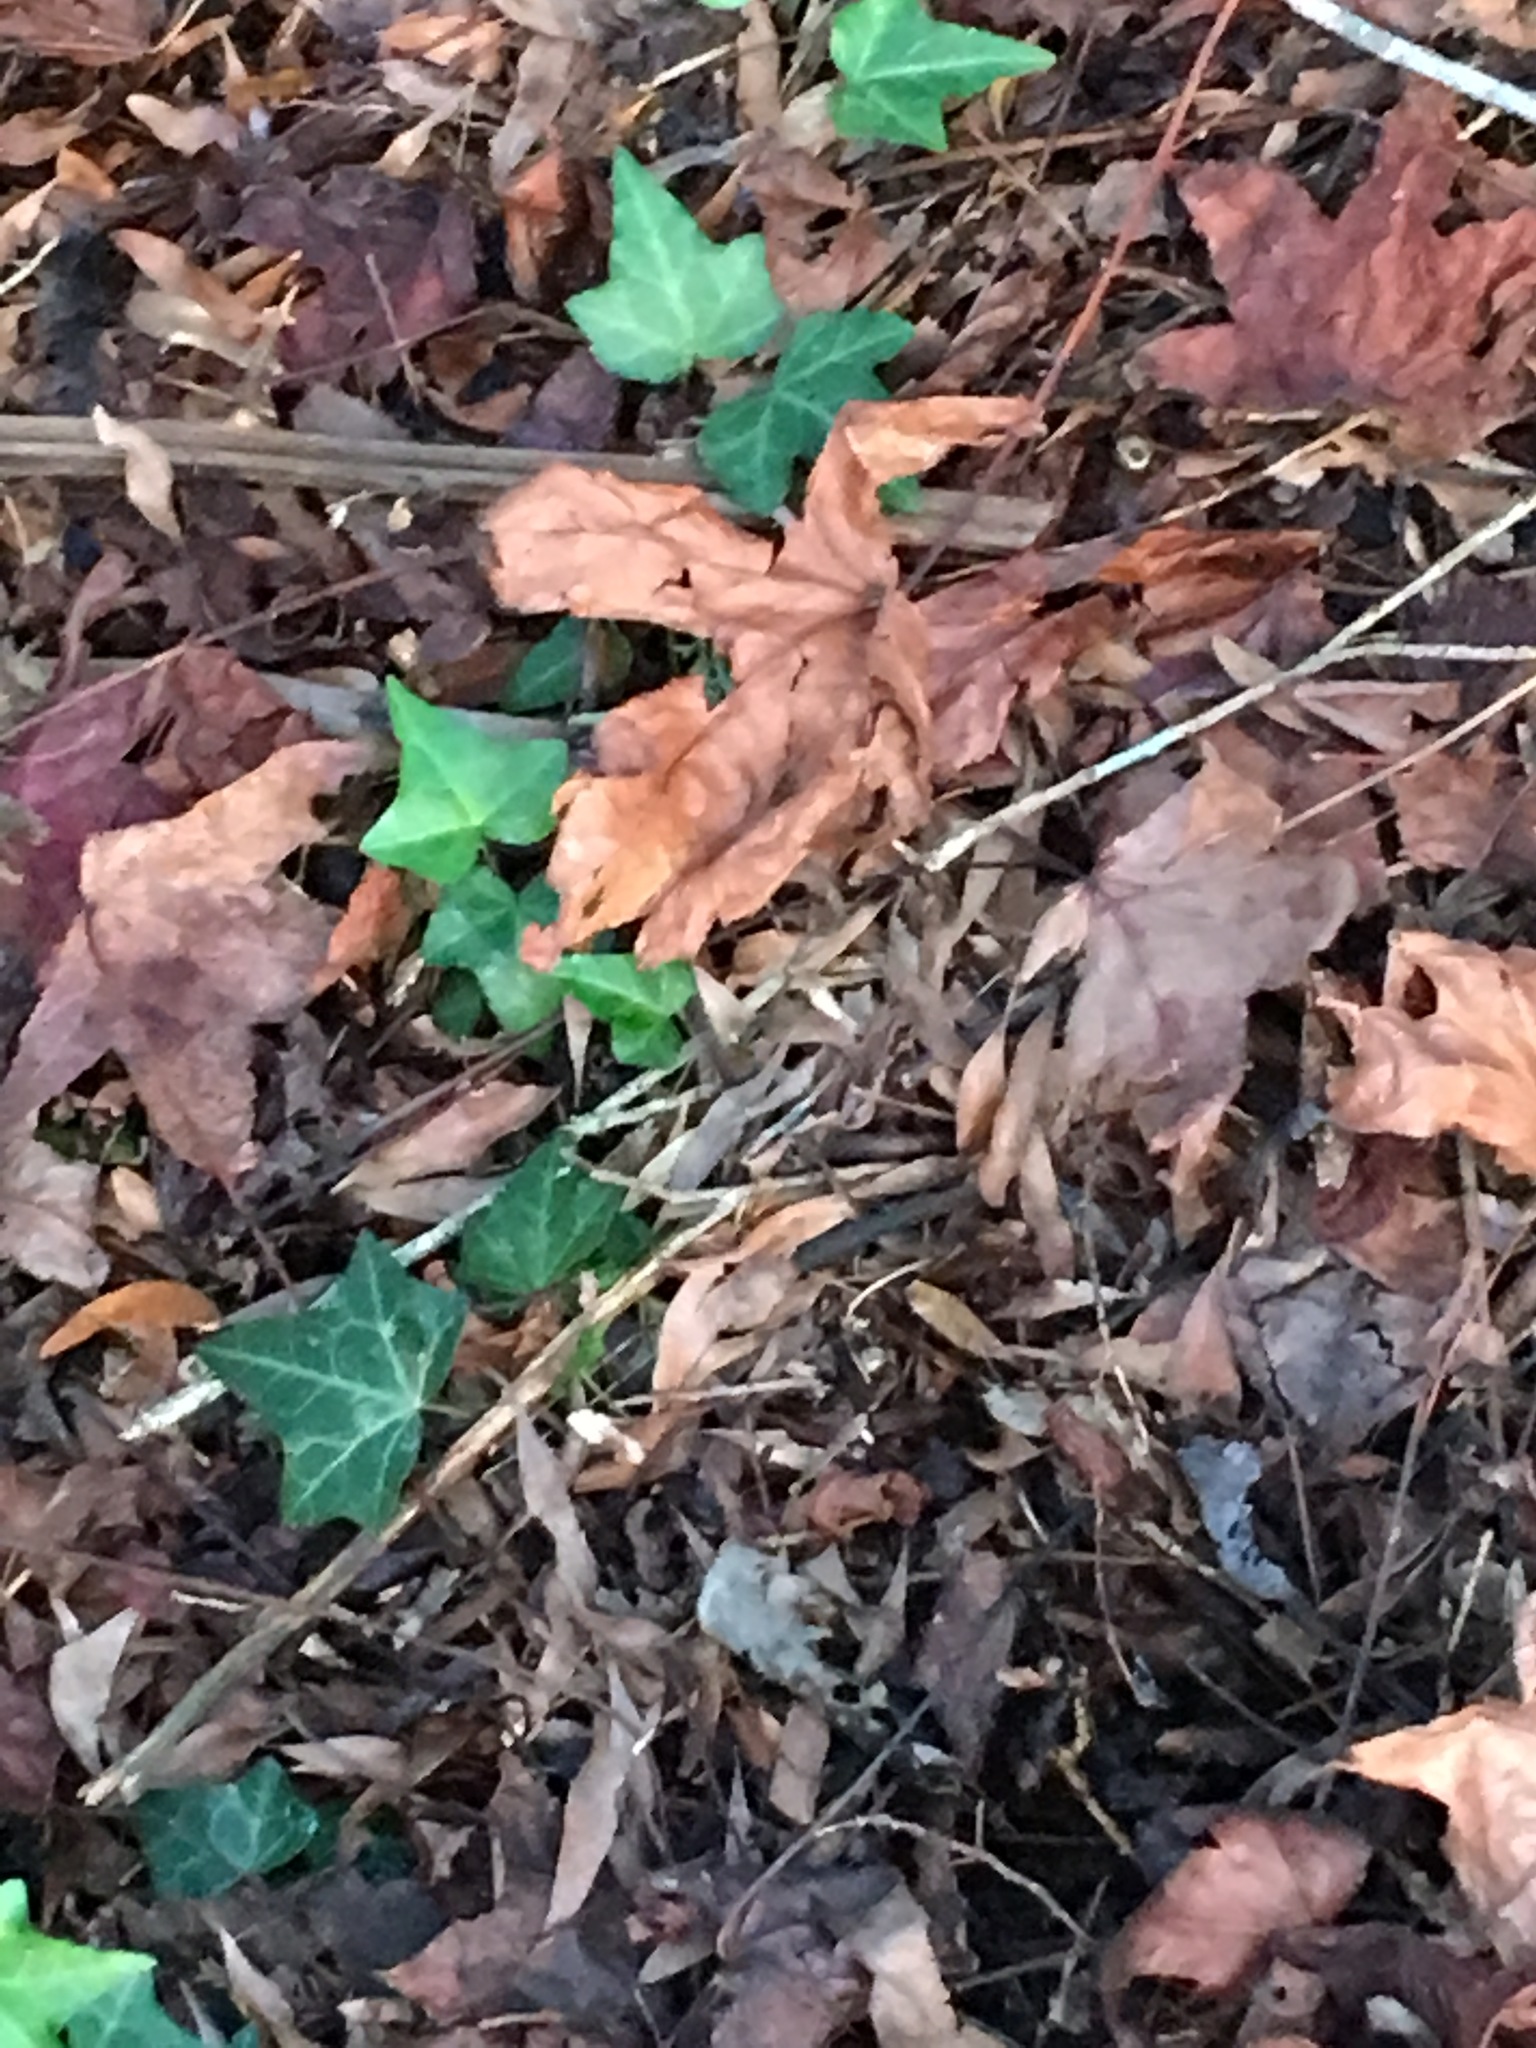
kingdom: Plantae
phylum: Tracheophyta
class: Magnoliopsida
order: Apiales
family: Araliaceae
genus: Hedera
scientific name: Hedera helix
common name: Ivy
